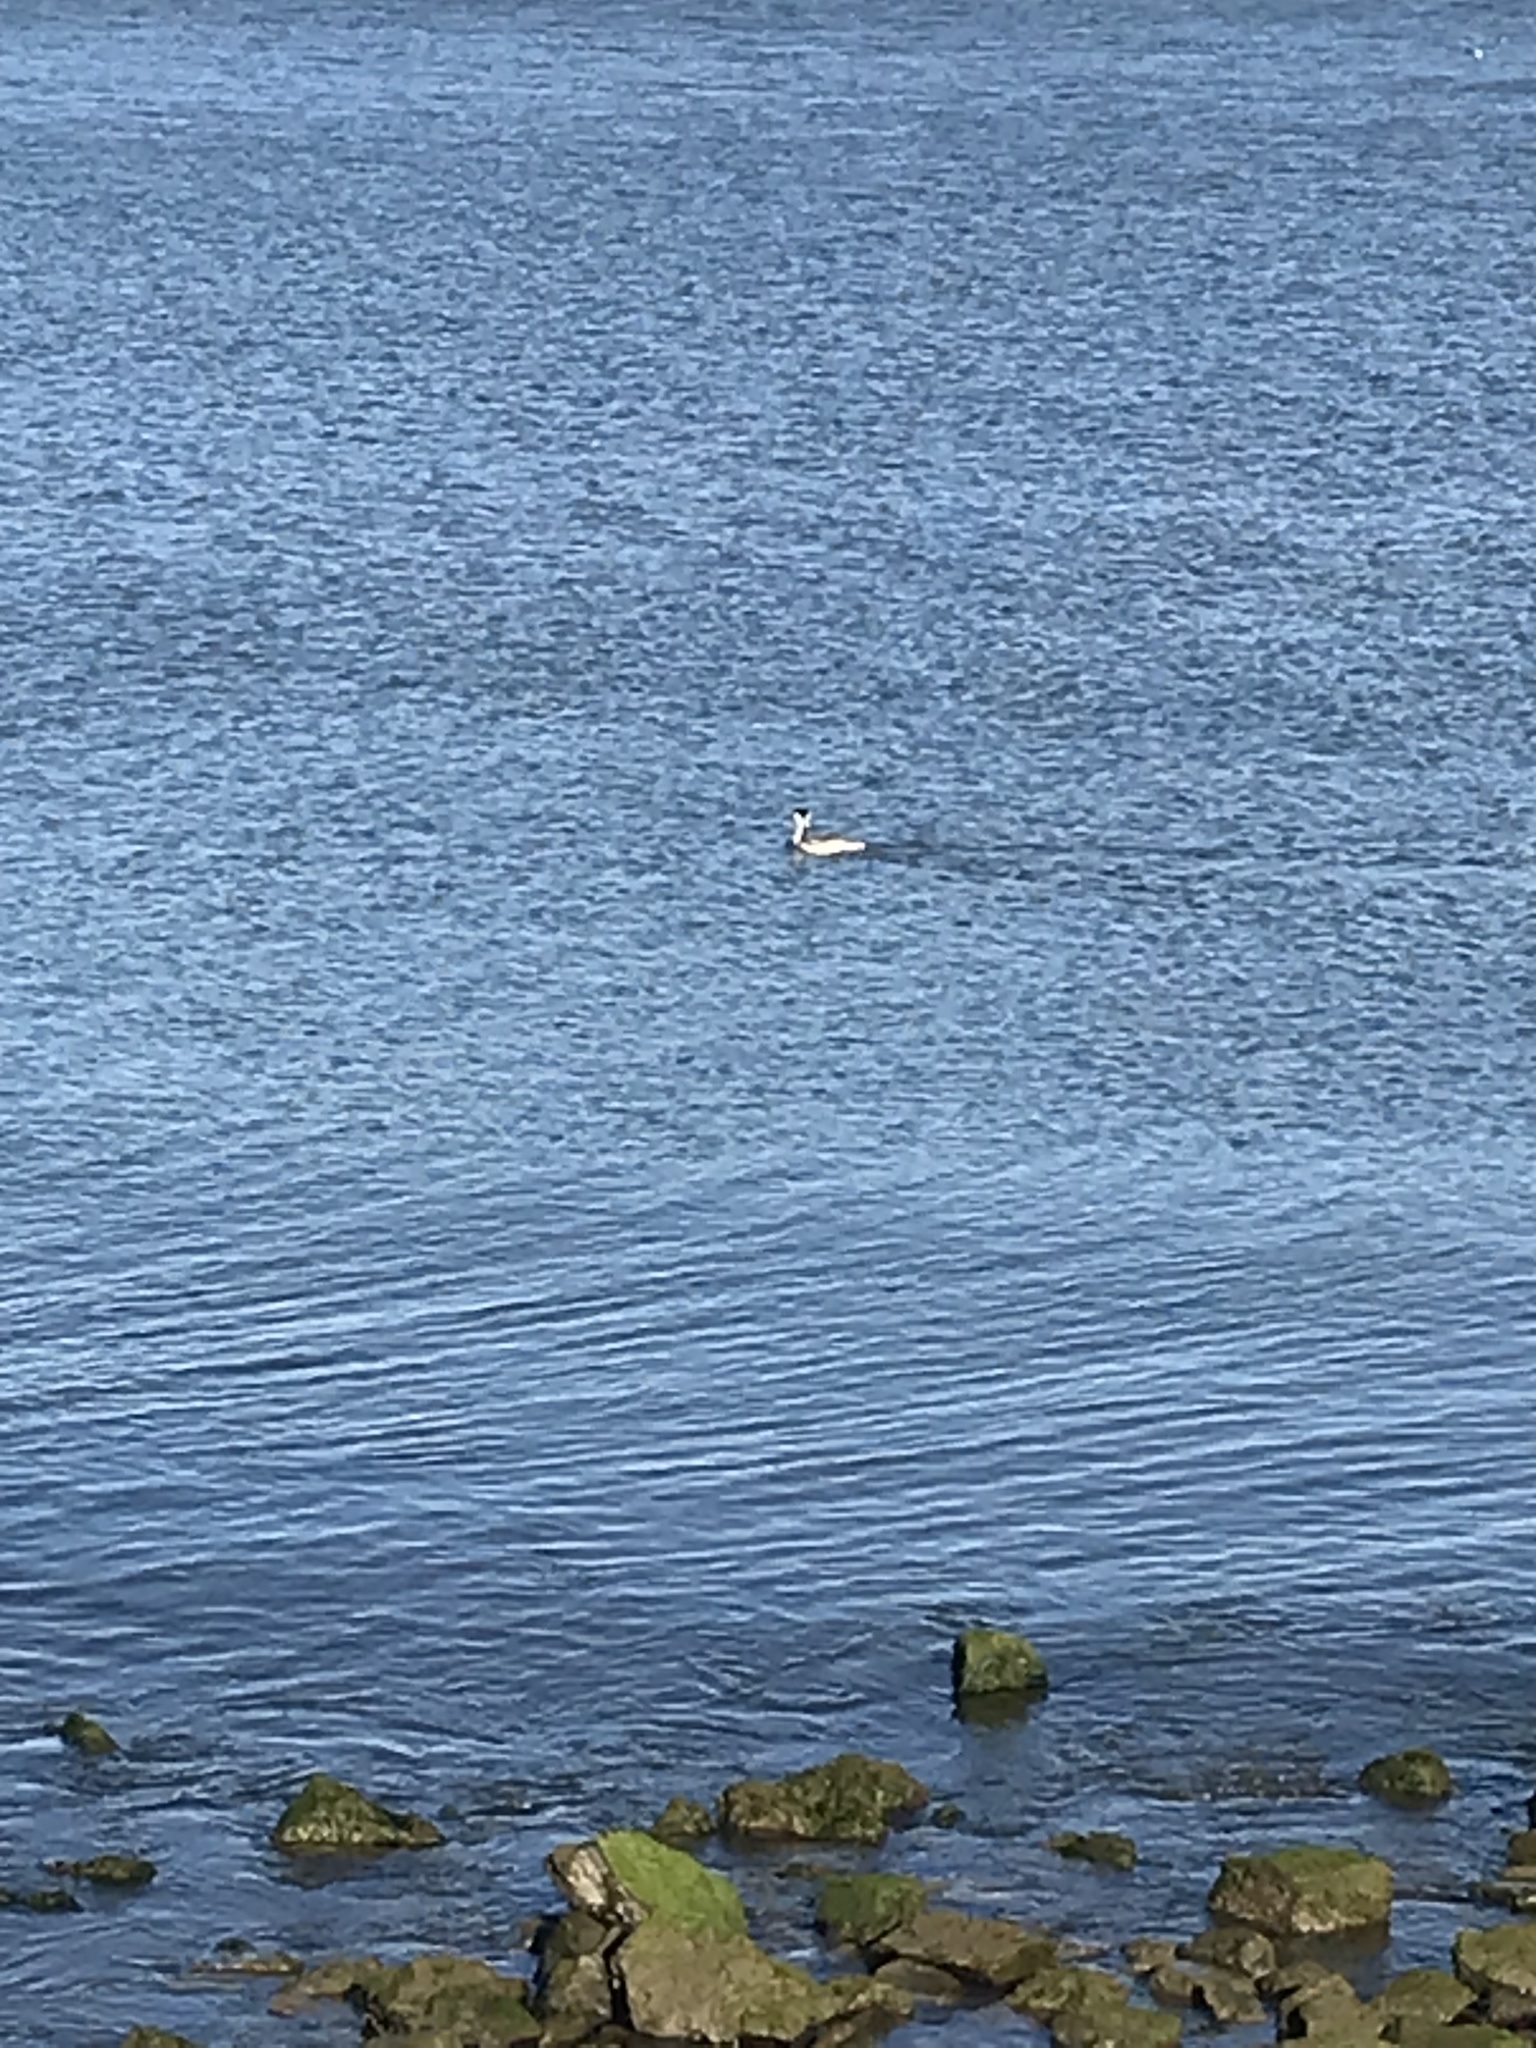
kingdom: Animalia
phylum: Chordata
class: Aves
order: Podicipediformes
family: Podicipedidae
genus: Aechmophorus
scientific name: Aechmophorus
